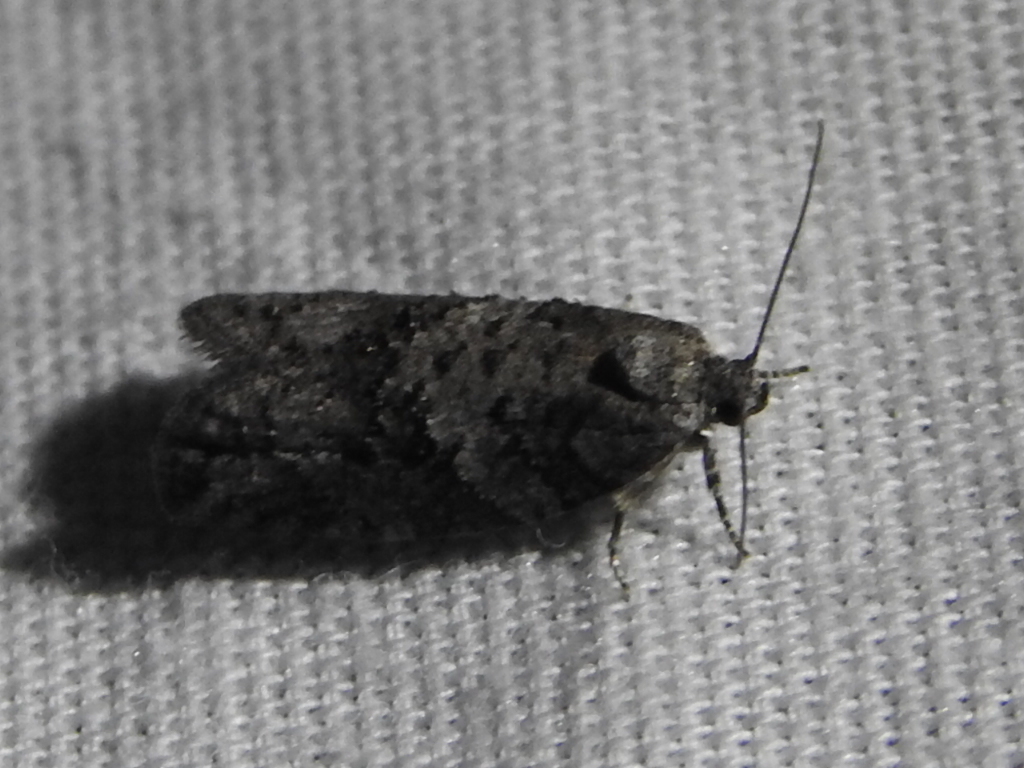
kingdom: Animalia
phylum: Arthropoda
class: Insecta
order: Lepidoptera
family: Tortricidae
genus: Decodes
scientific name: Decodes basiplagana
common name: Gray-marked tortricid
